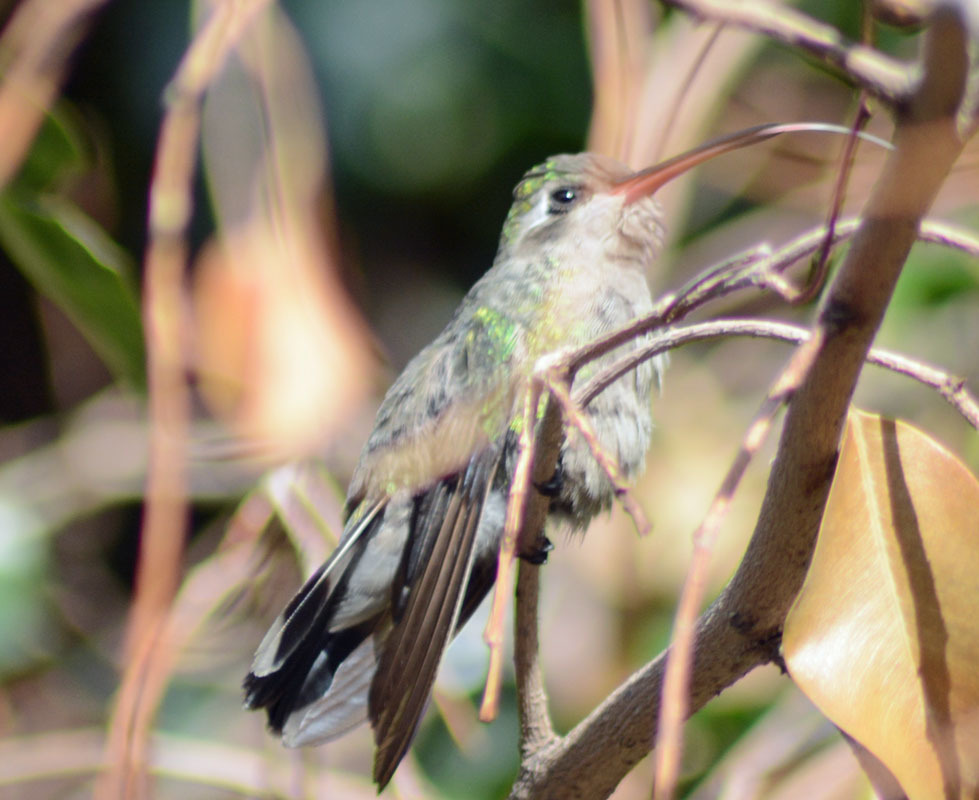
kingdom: Animalia
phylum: Chordata
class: Aves
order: Apodiformes
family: Trochilidae
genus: Cynanthus
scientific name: Cynanthus latirostris
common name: Broad-billed hummingbird
